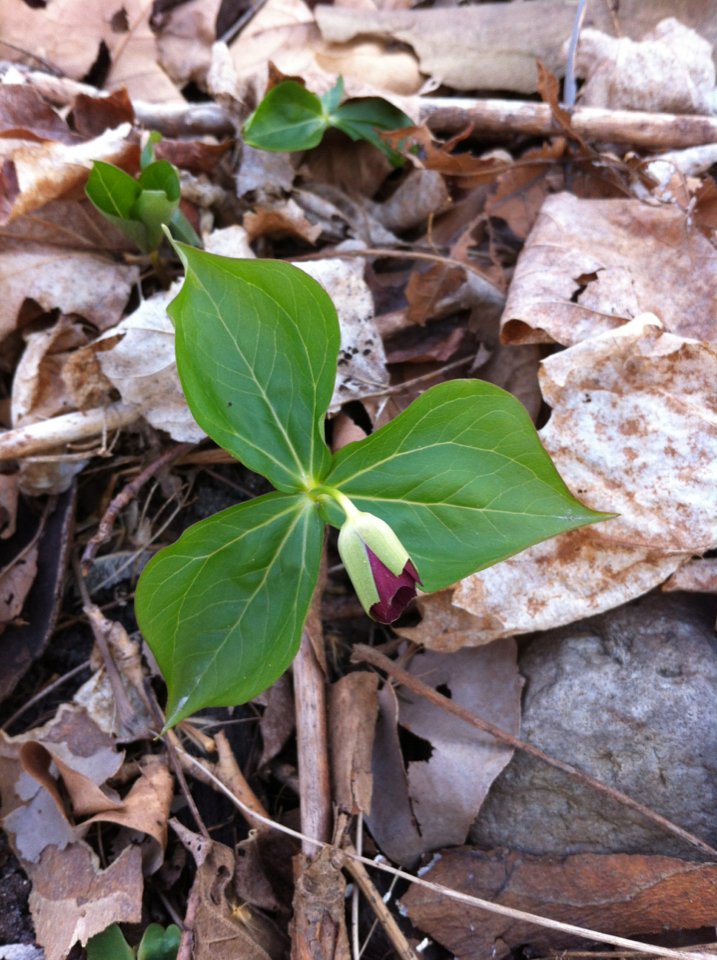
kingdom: Plantae
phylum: Tracheophyta
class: Liliopsida
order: Liliales
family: Melanthiaceae
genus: Trillium
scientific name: Trillium erectum
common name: Purple trillium
